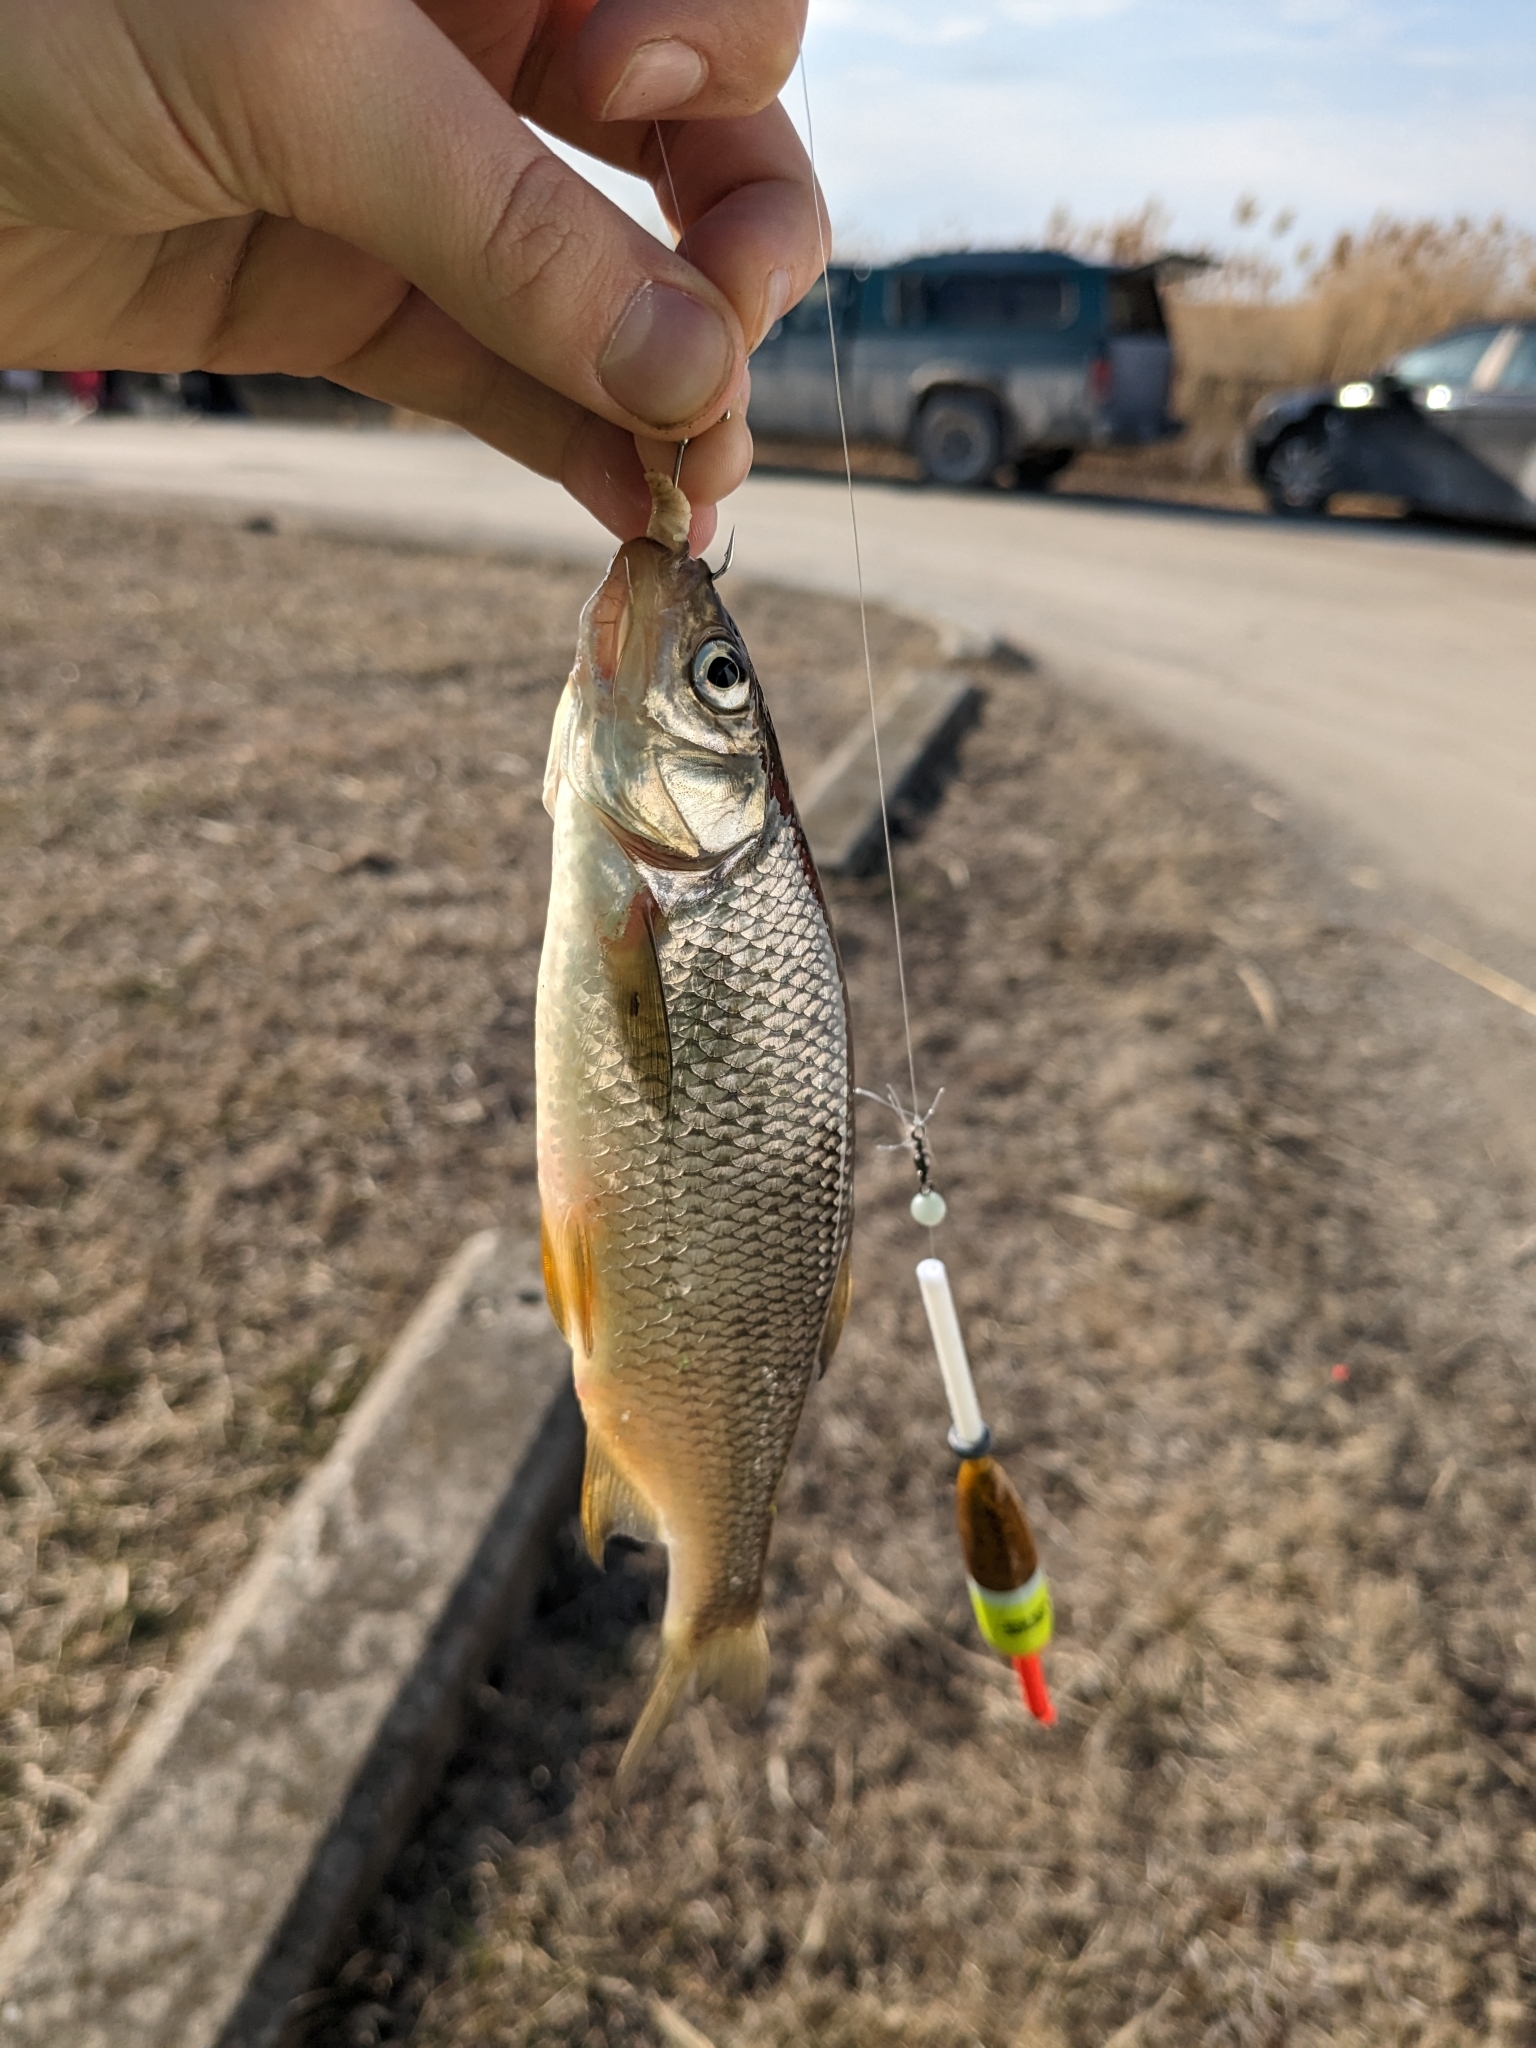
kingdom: Animalia
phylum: Chordata
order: Cypriniformes
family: Cyprinidae
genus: Notemigonus
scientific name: Notemigonus crysoleucas
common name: Golden shiner
